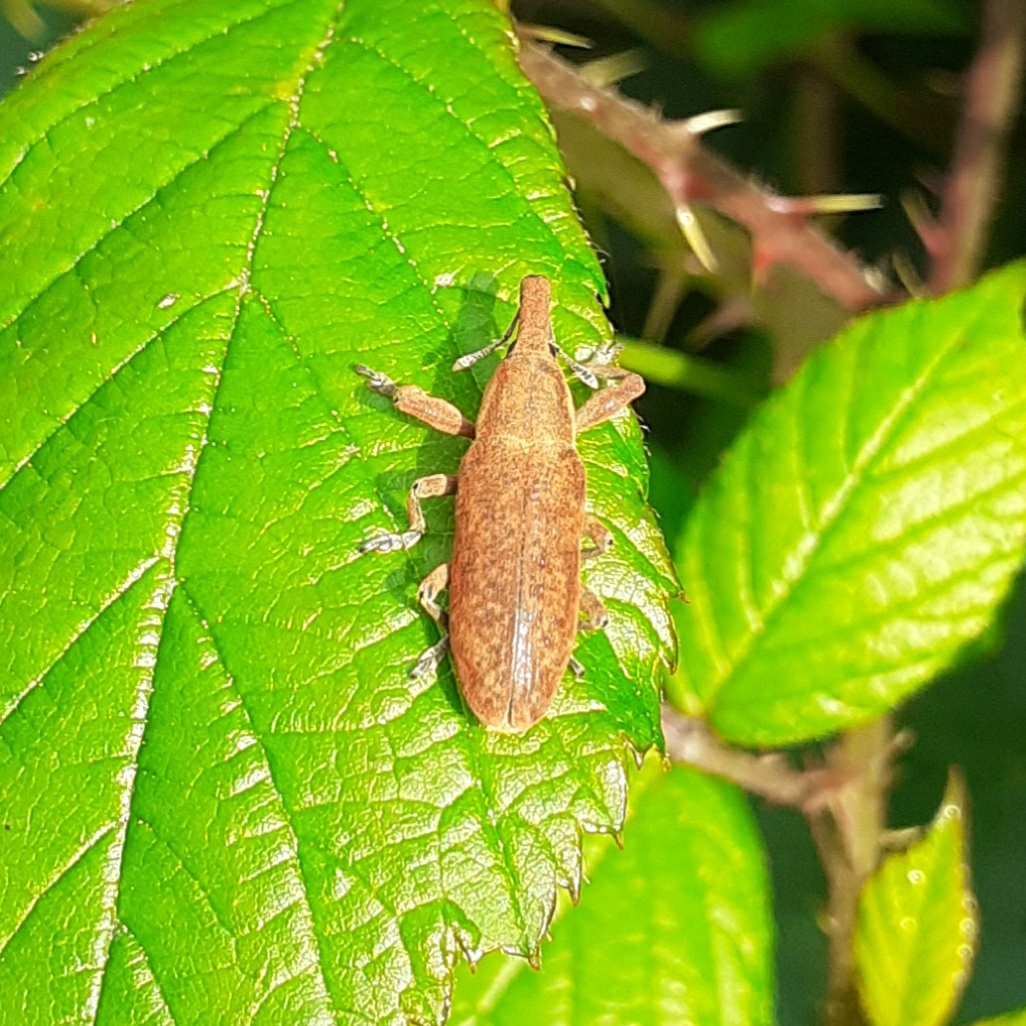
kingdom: Animalia
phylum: Arthropoda
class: Insecta
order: Coleoptera
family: Curculionidae
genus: Lixus
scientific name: Lixus pulverulentus
